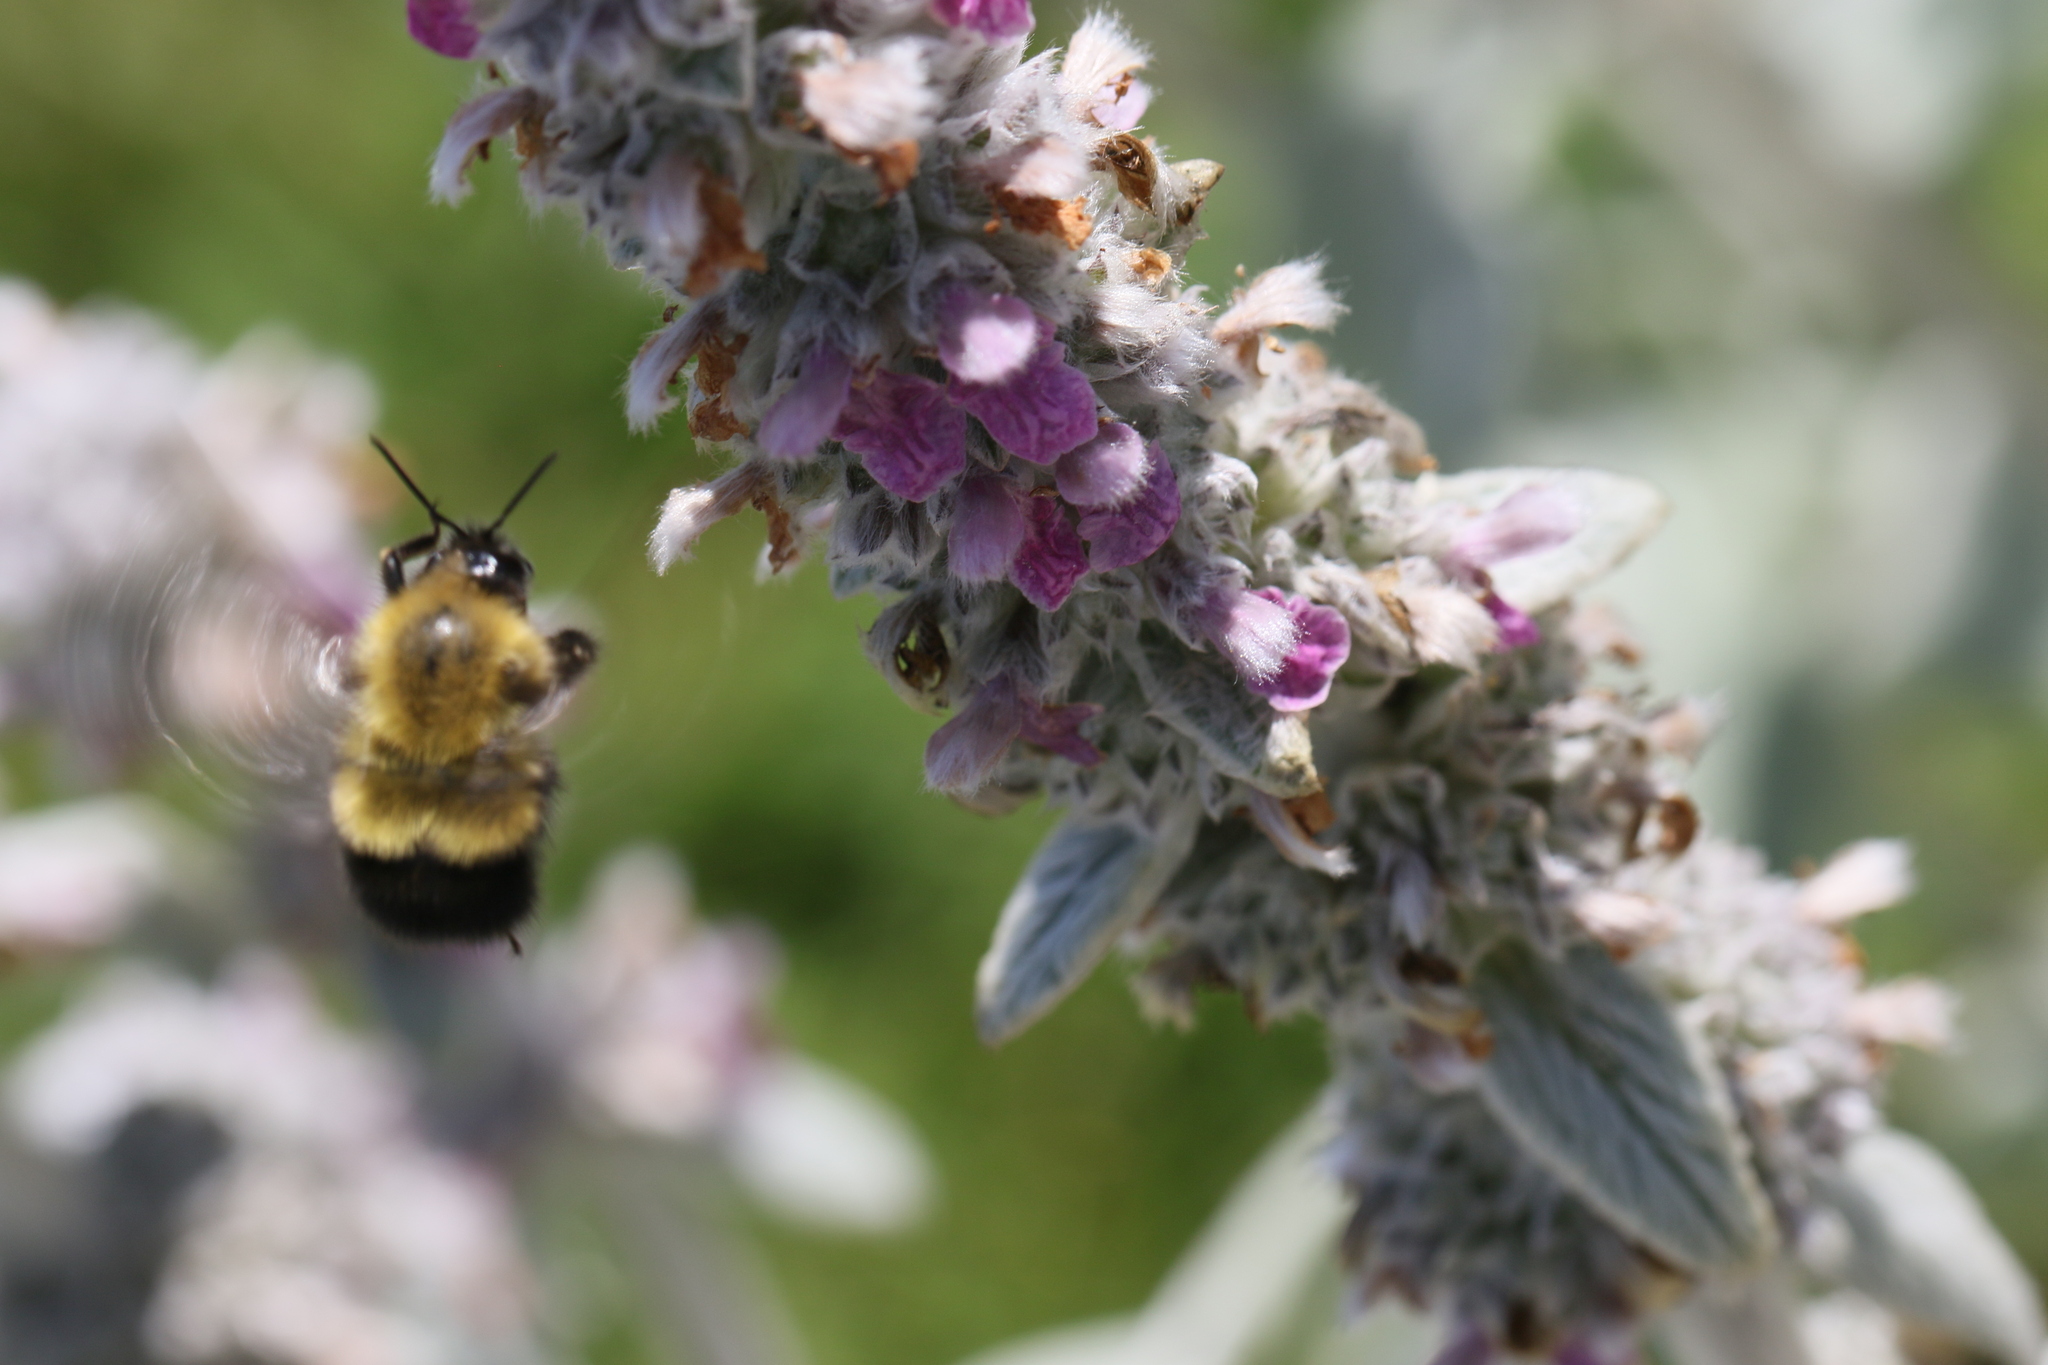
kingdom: Animalia
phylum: Arthropoda
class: Insecta
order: Hymenoptera
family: Apidae
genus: Bombus
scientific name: Bombus perplexus
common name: Confusing bumble bee
